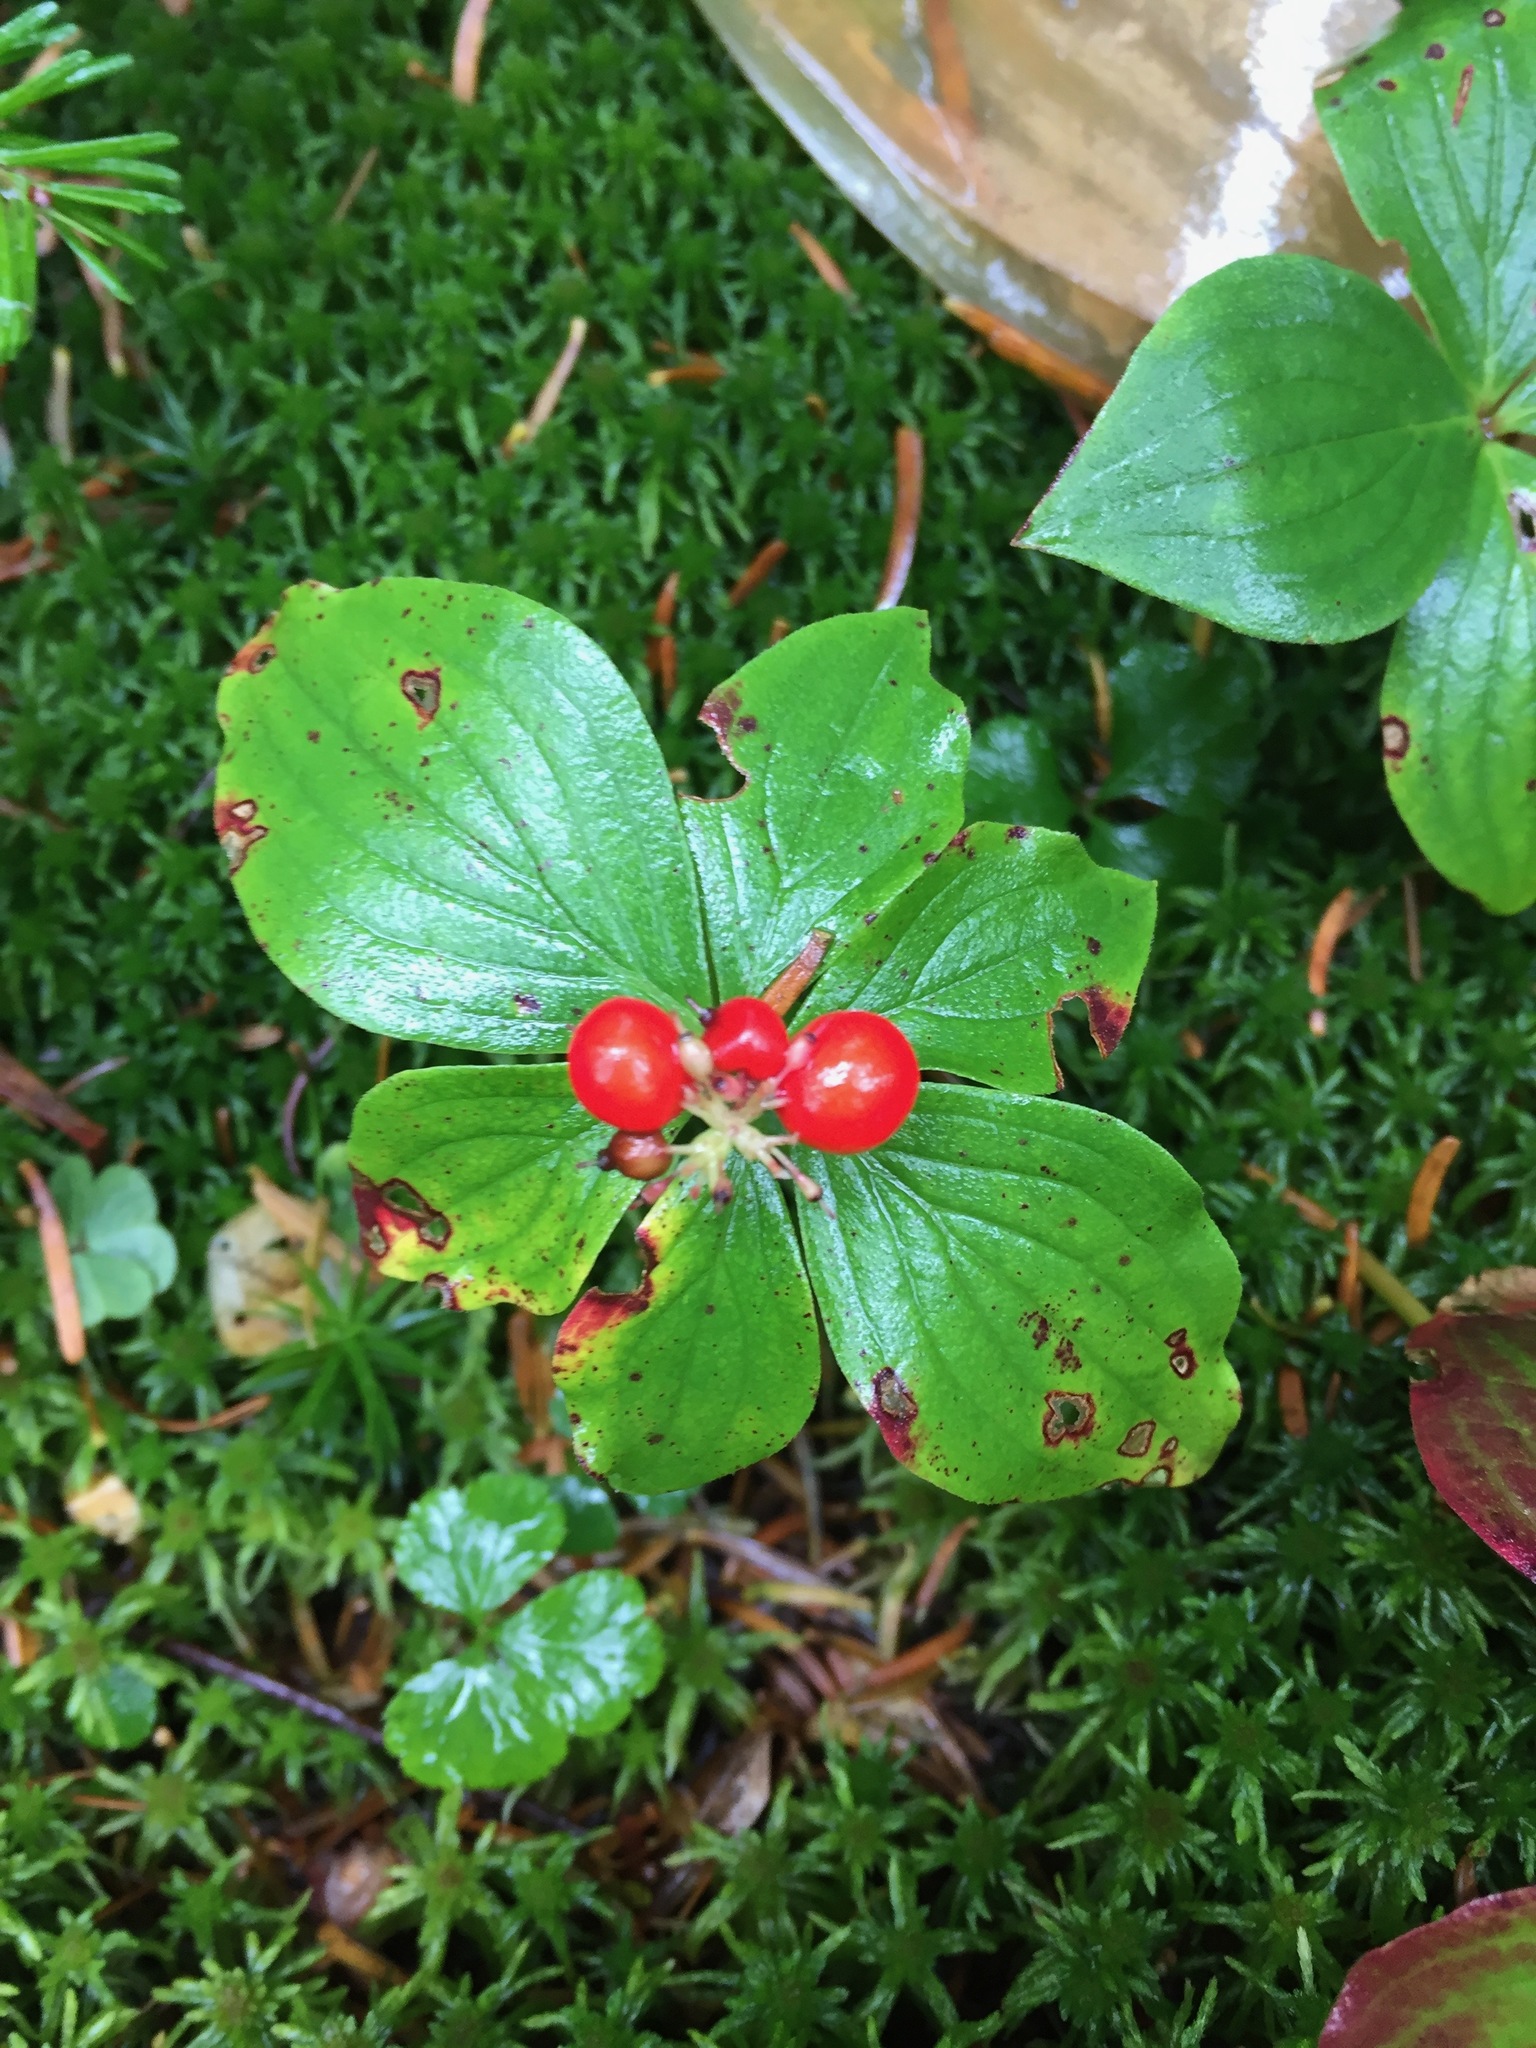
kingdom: Plantae
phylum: Tracheophyta
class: Magnoliopsida
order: Cornales
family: Cornaceae
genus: Cornus
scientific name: Cornus canadensis
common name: Creeping dogwood
